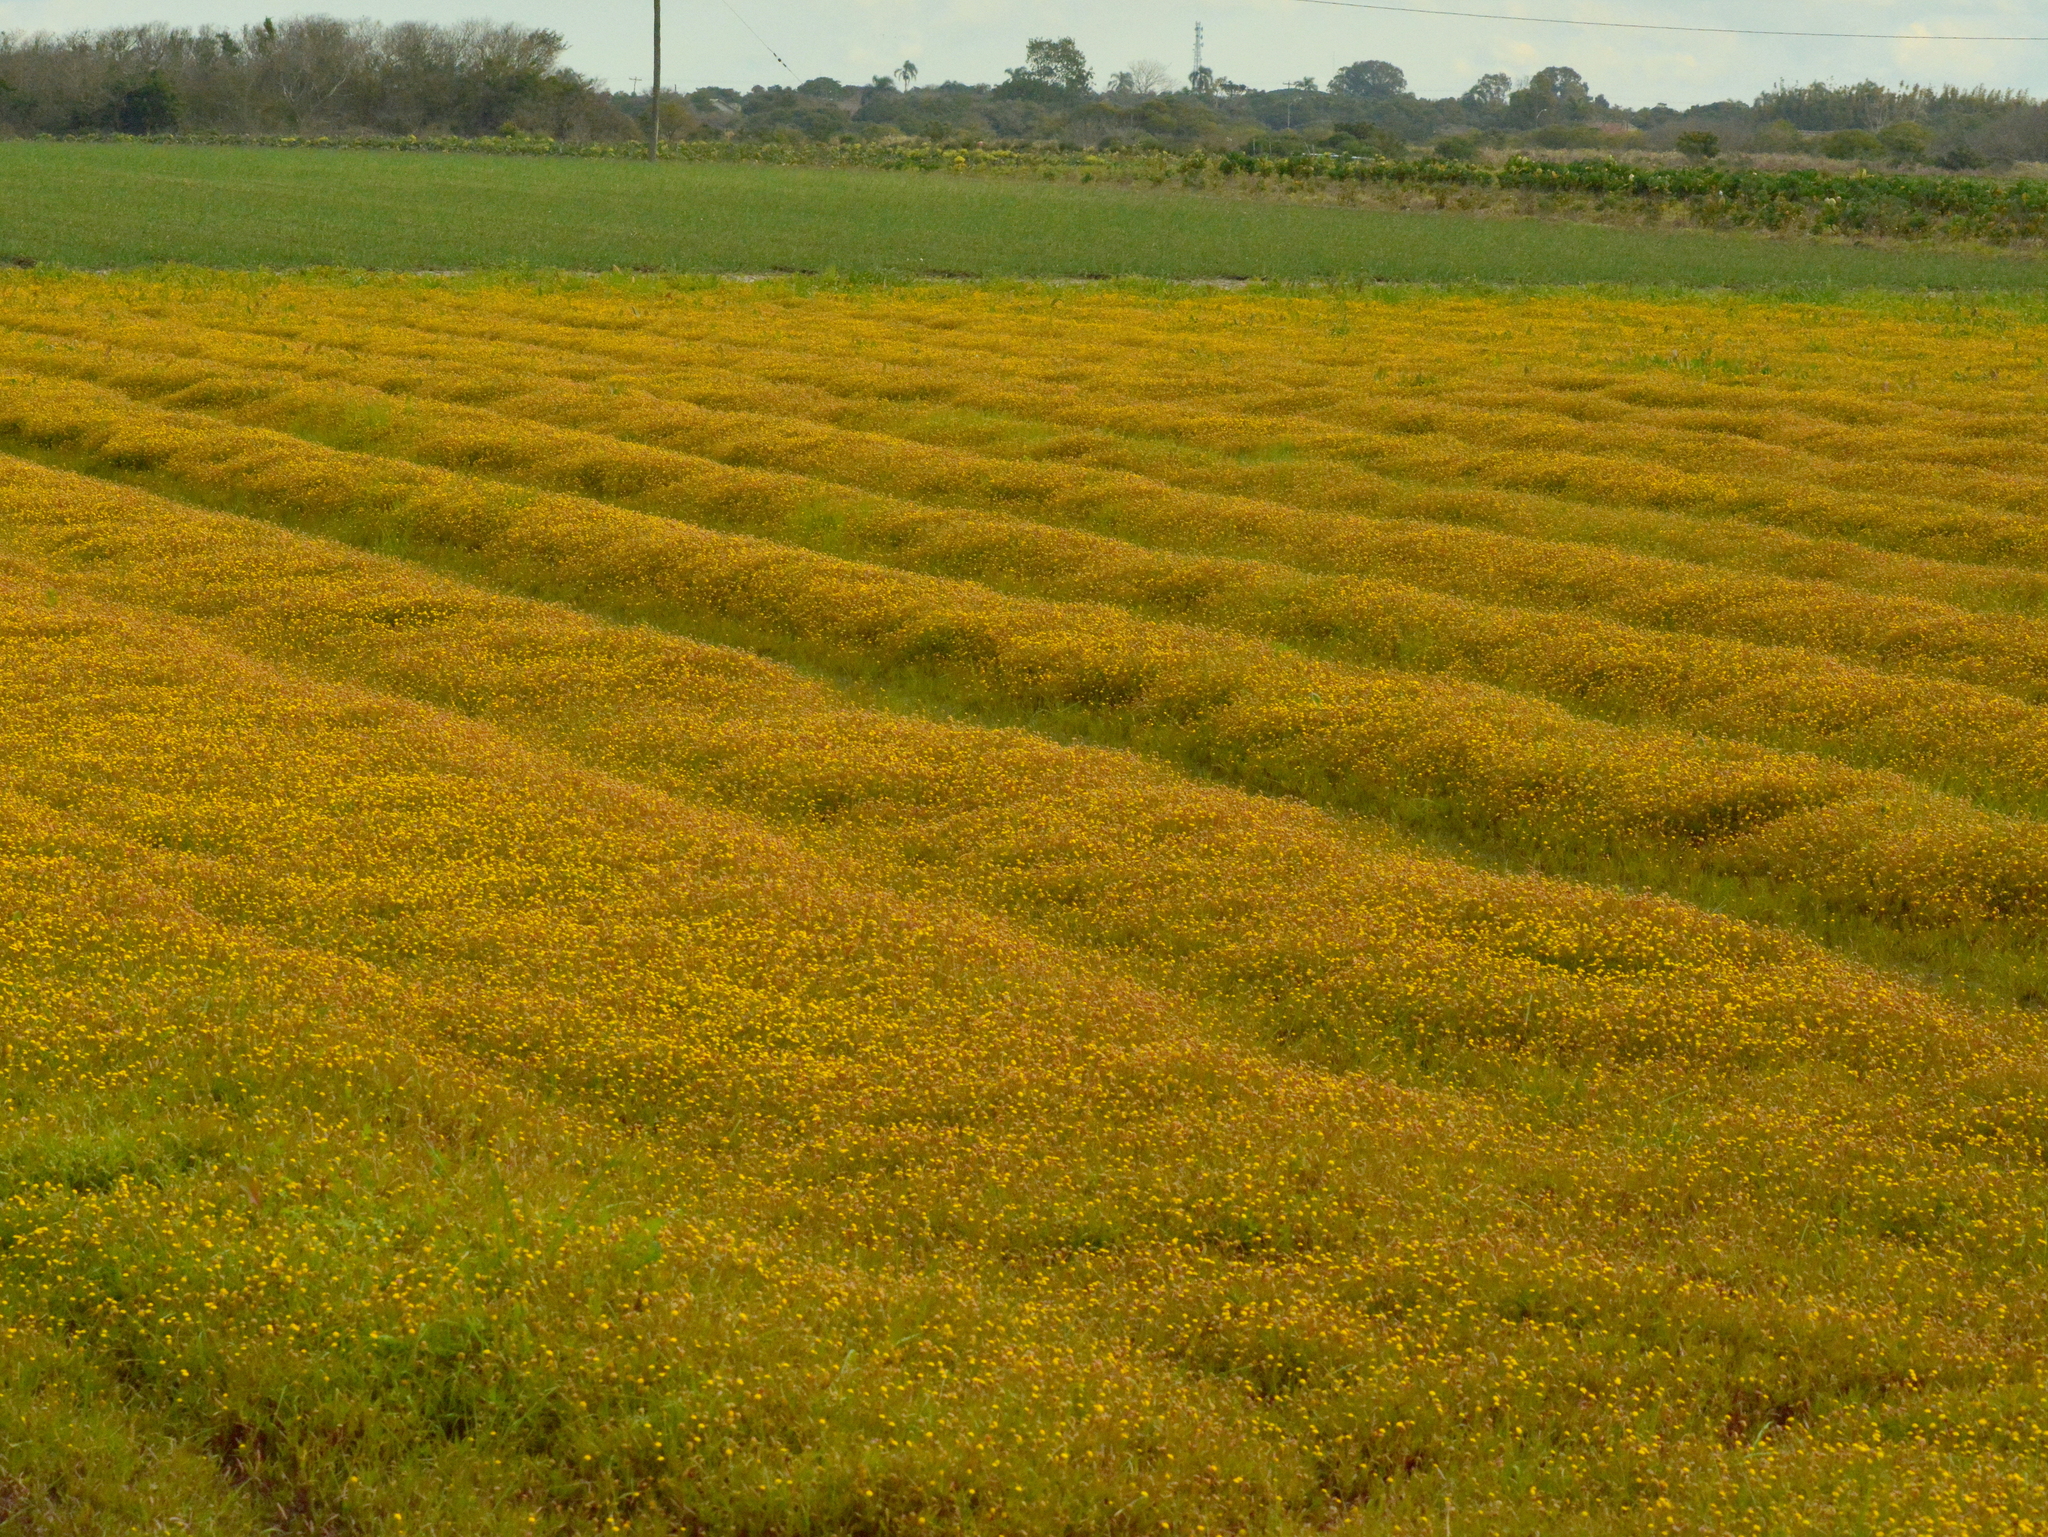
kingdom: Plantae
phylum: Tracheophyta
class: Magnoliopsida
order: Asterales
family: Asteraceae
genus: Cotula
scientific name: Cotula coronopifolia
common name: Buttonweed
